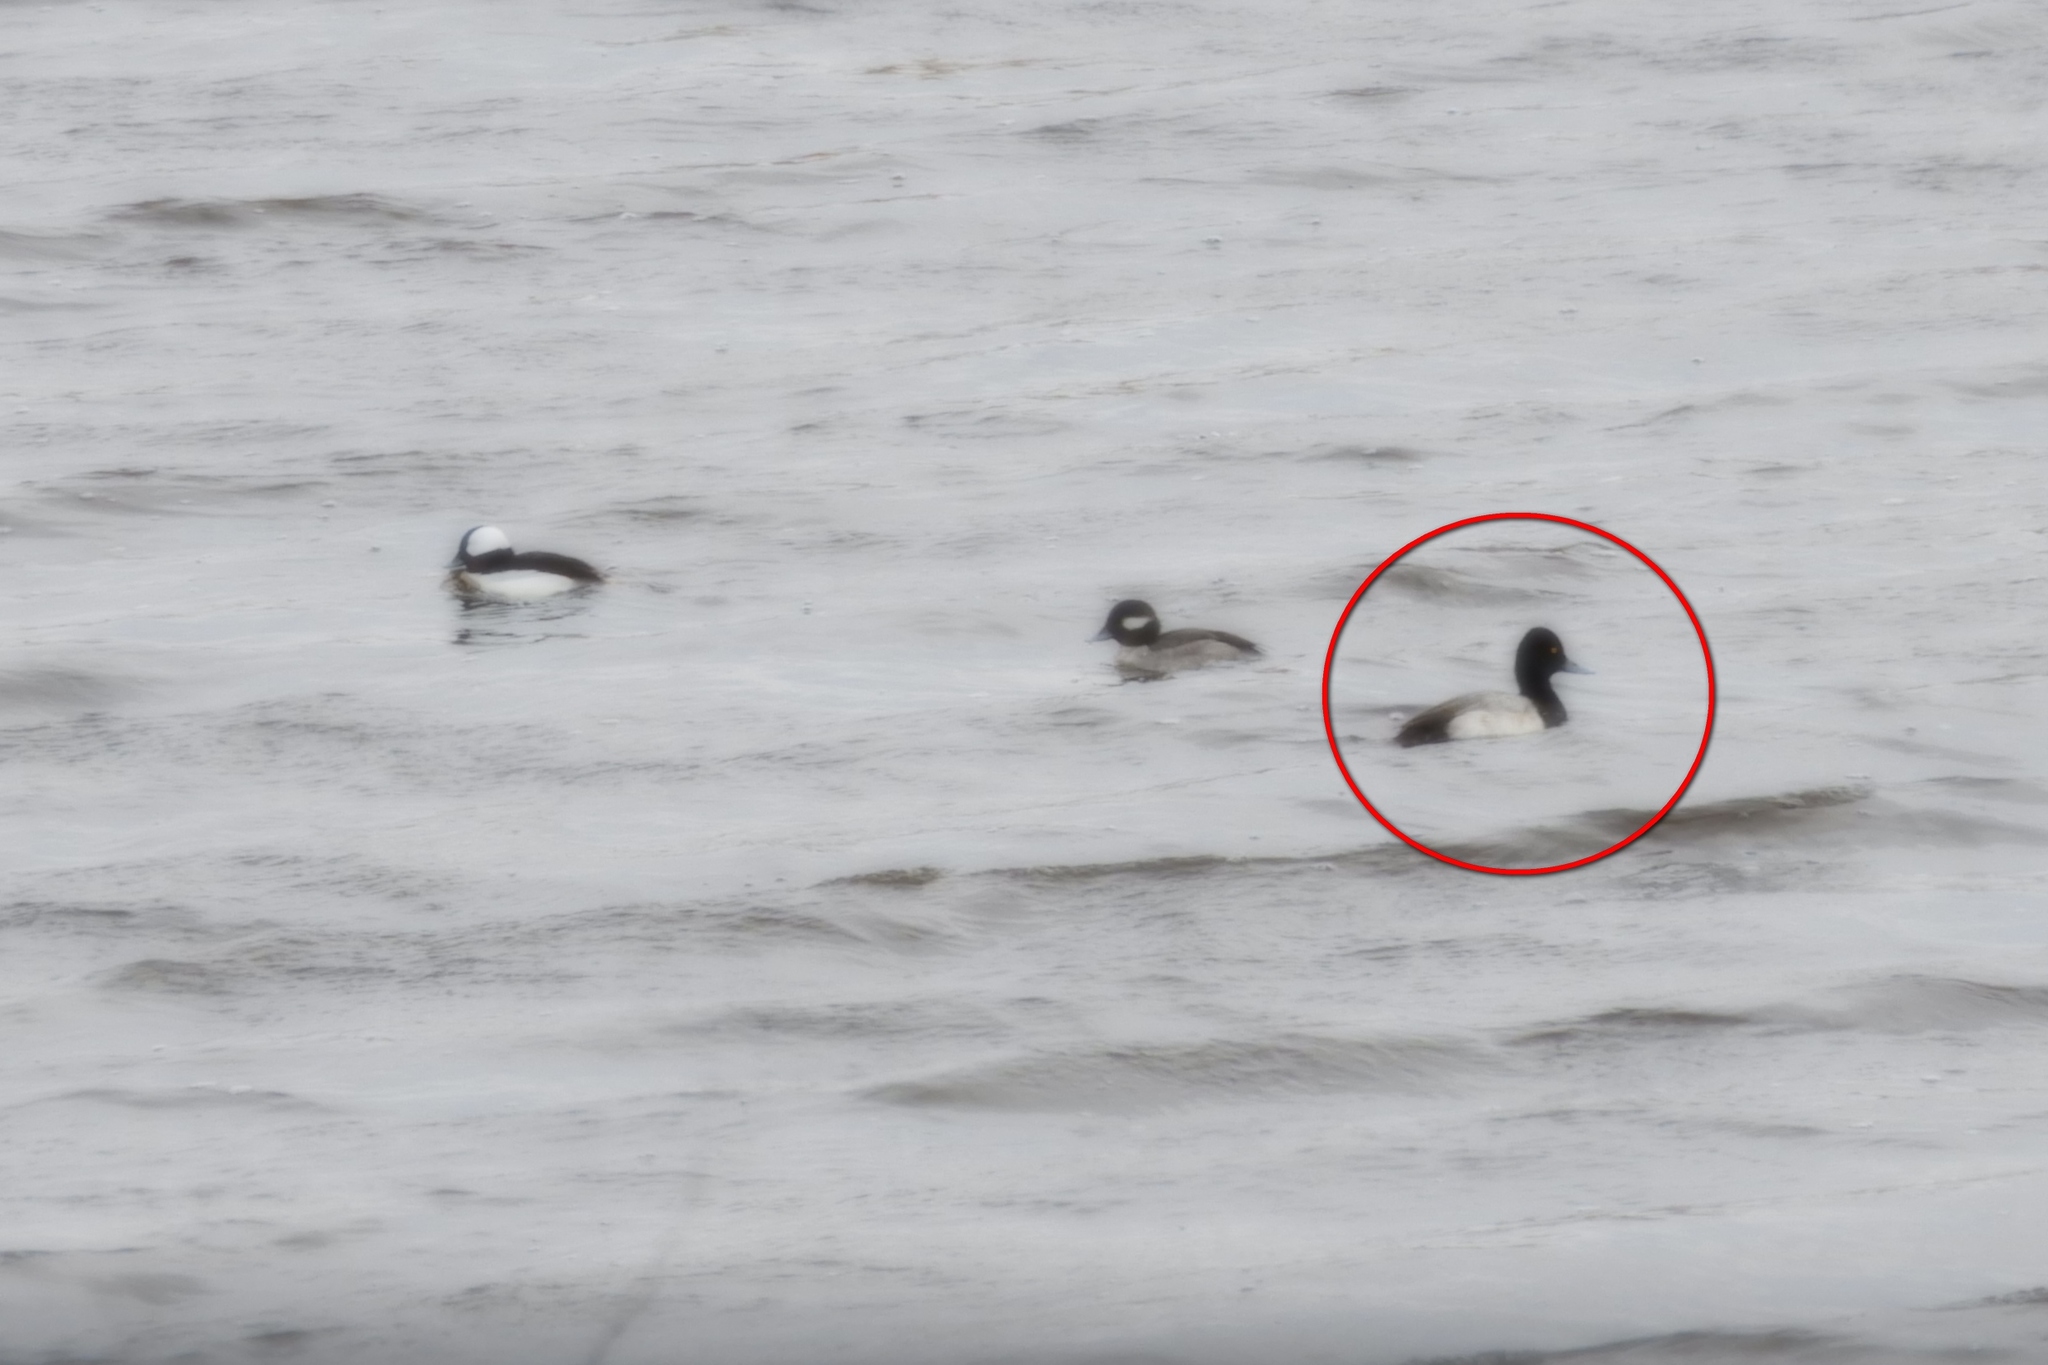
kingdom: Animalia
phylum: Chordata
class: Aves
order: Anseriformes
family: Anatidae
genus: Aythya
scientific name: Aythya affinis
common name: Lesser scaup
